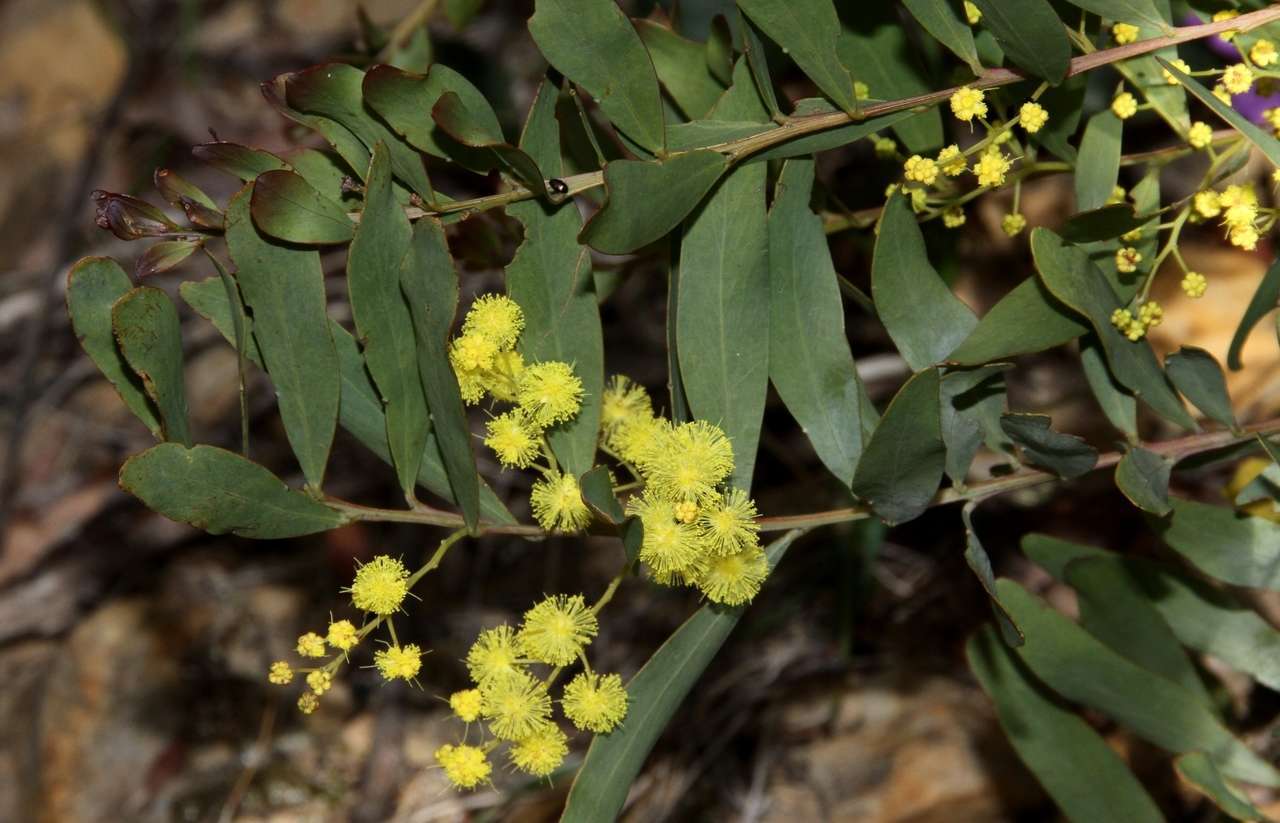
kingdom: Plantae
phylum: Tracheophyta
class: Magnoliopsida
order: Fabales
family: Fabaceae
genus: Acacia
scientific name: Acacia prominens
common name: Gosford wattle
